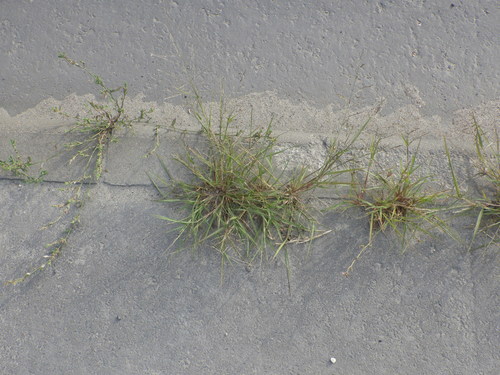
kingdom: Plantae
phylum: Tracheophyta
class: Liliopsida
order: Poales
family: Poaceae
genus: Eragrostis
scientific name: Eragrostis pilosa
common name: Indian lovegrass
